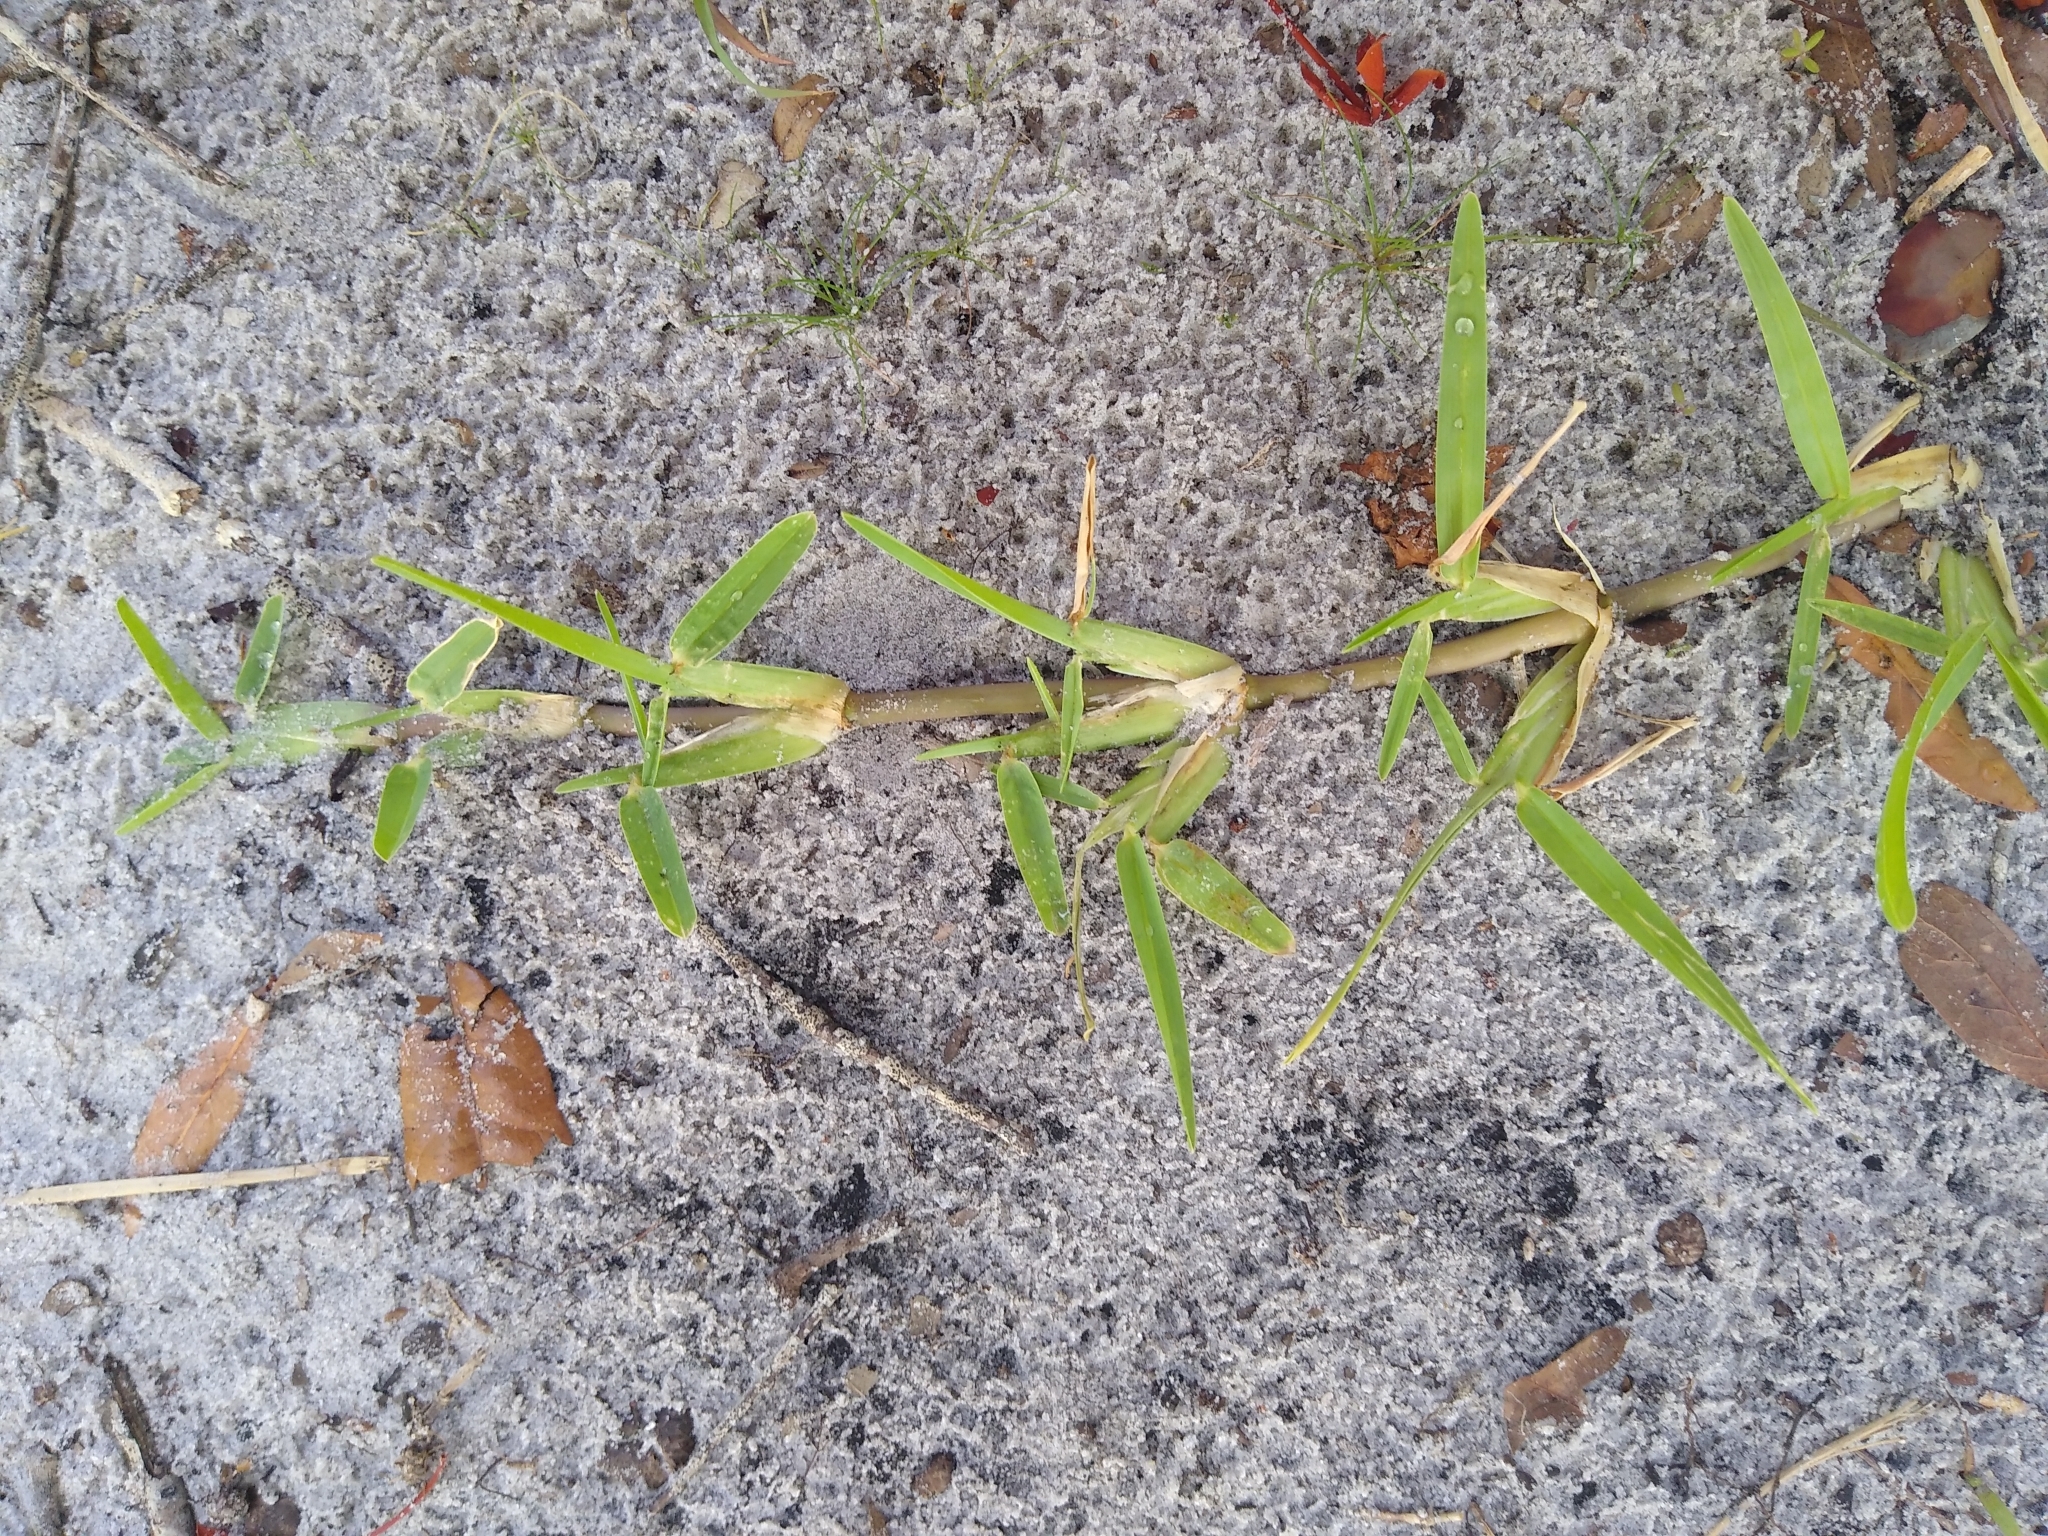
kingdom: Plantae
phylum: Tracheophyta
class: Liliopsida
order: Poales
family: Poaceae
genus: Stenotaphrum
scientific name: Stenotaphrum secundatum
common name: St. augustine grass
